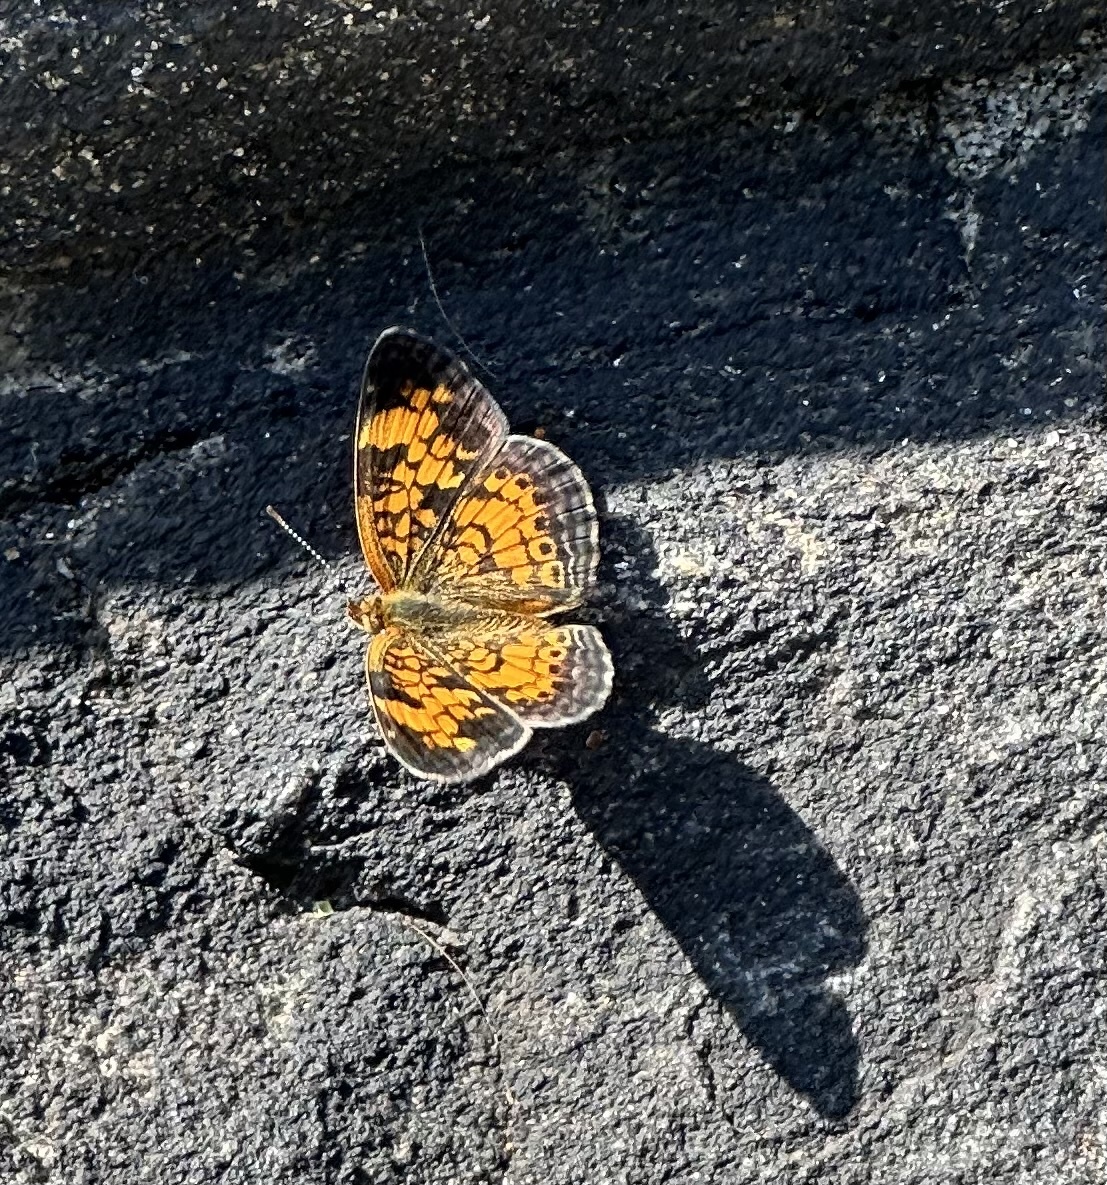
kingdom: Animalia
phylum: Arthropoda
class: Insecta
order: Lepidoptera
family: Nymphalidae
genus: Phyciodes
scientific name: Phyciodes tharos
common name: Pearl crescent
